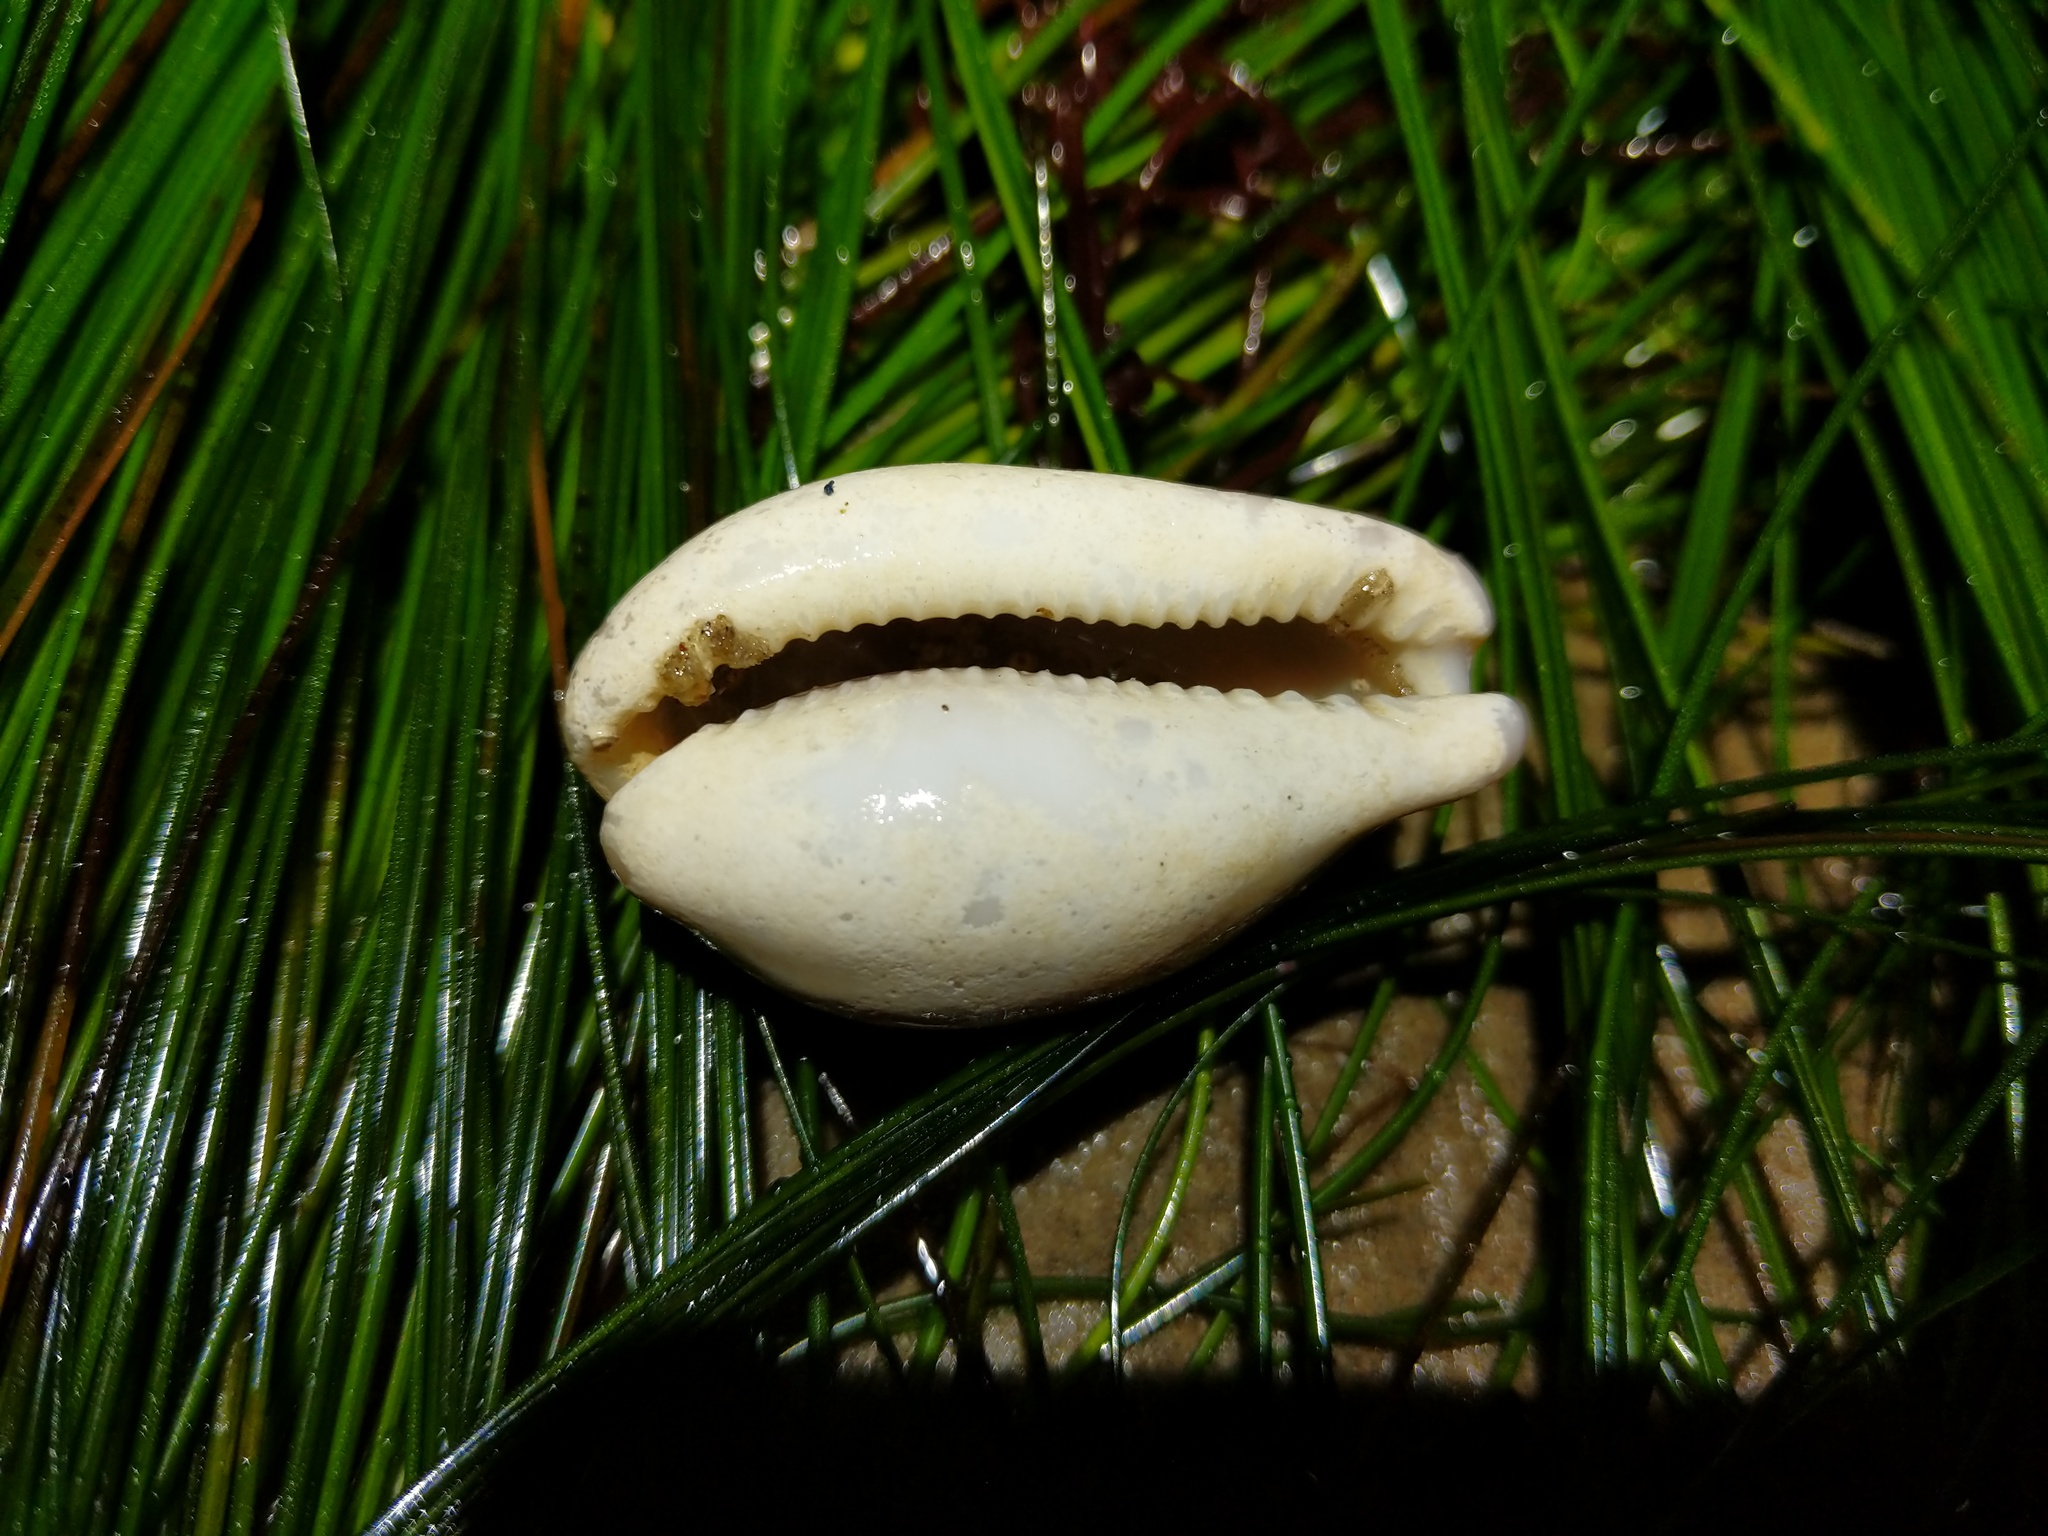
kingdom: Animalia
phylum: Mollusca
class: Gastropoda
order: Littorinimorpha
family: Cypraeidae
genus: Neobernaya
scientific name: Neobernaya spadicea
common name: Chestnut cowrie
